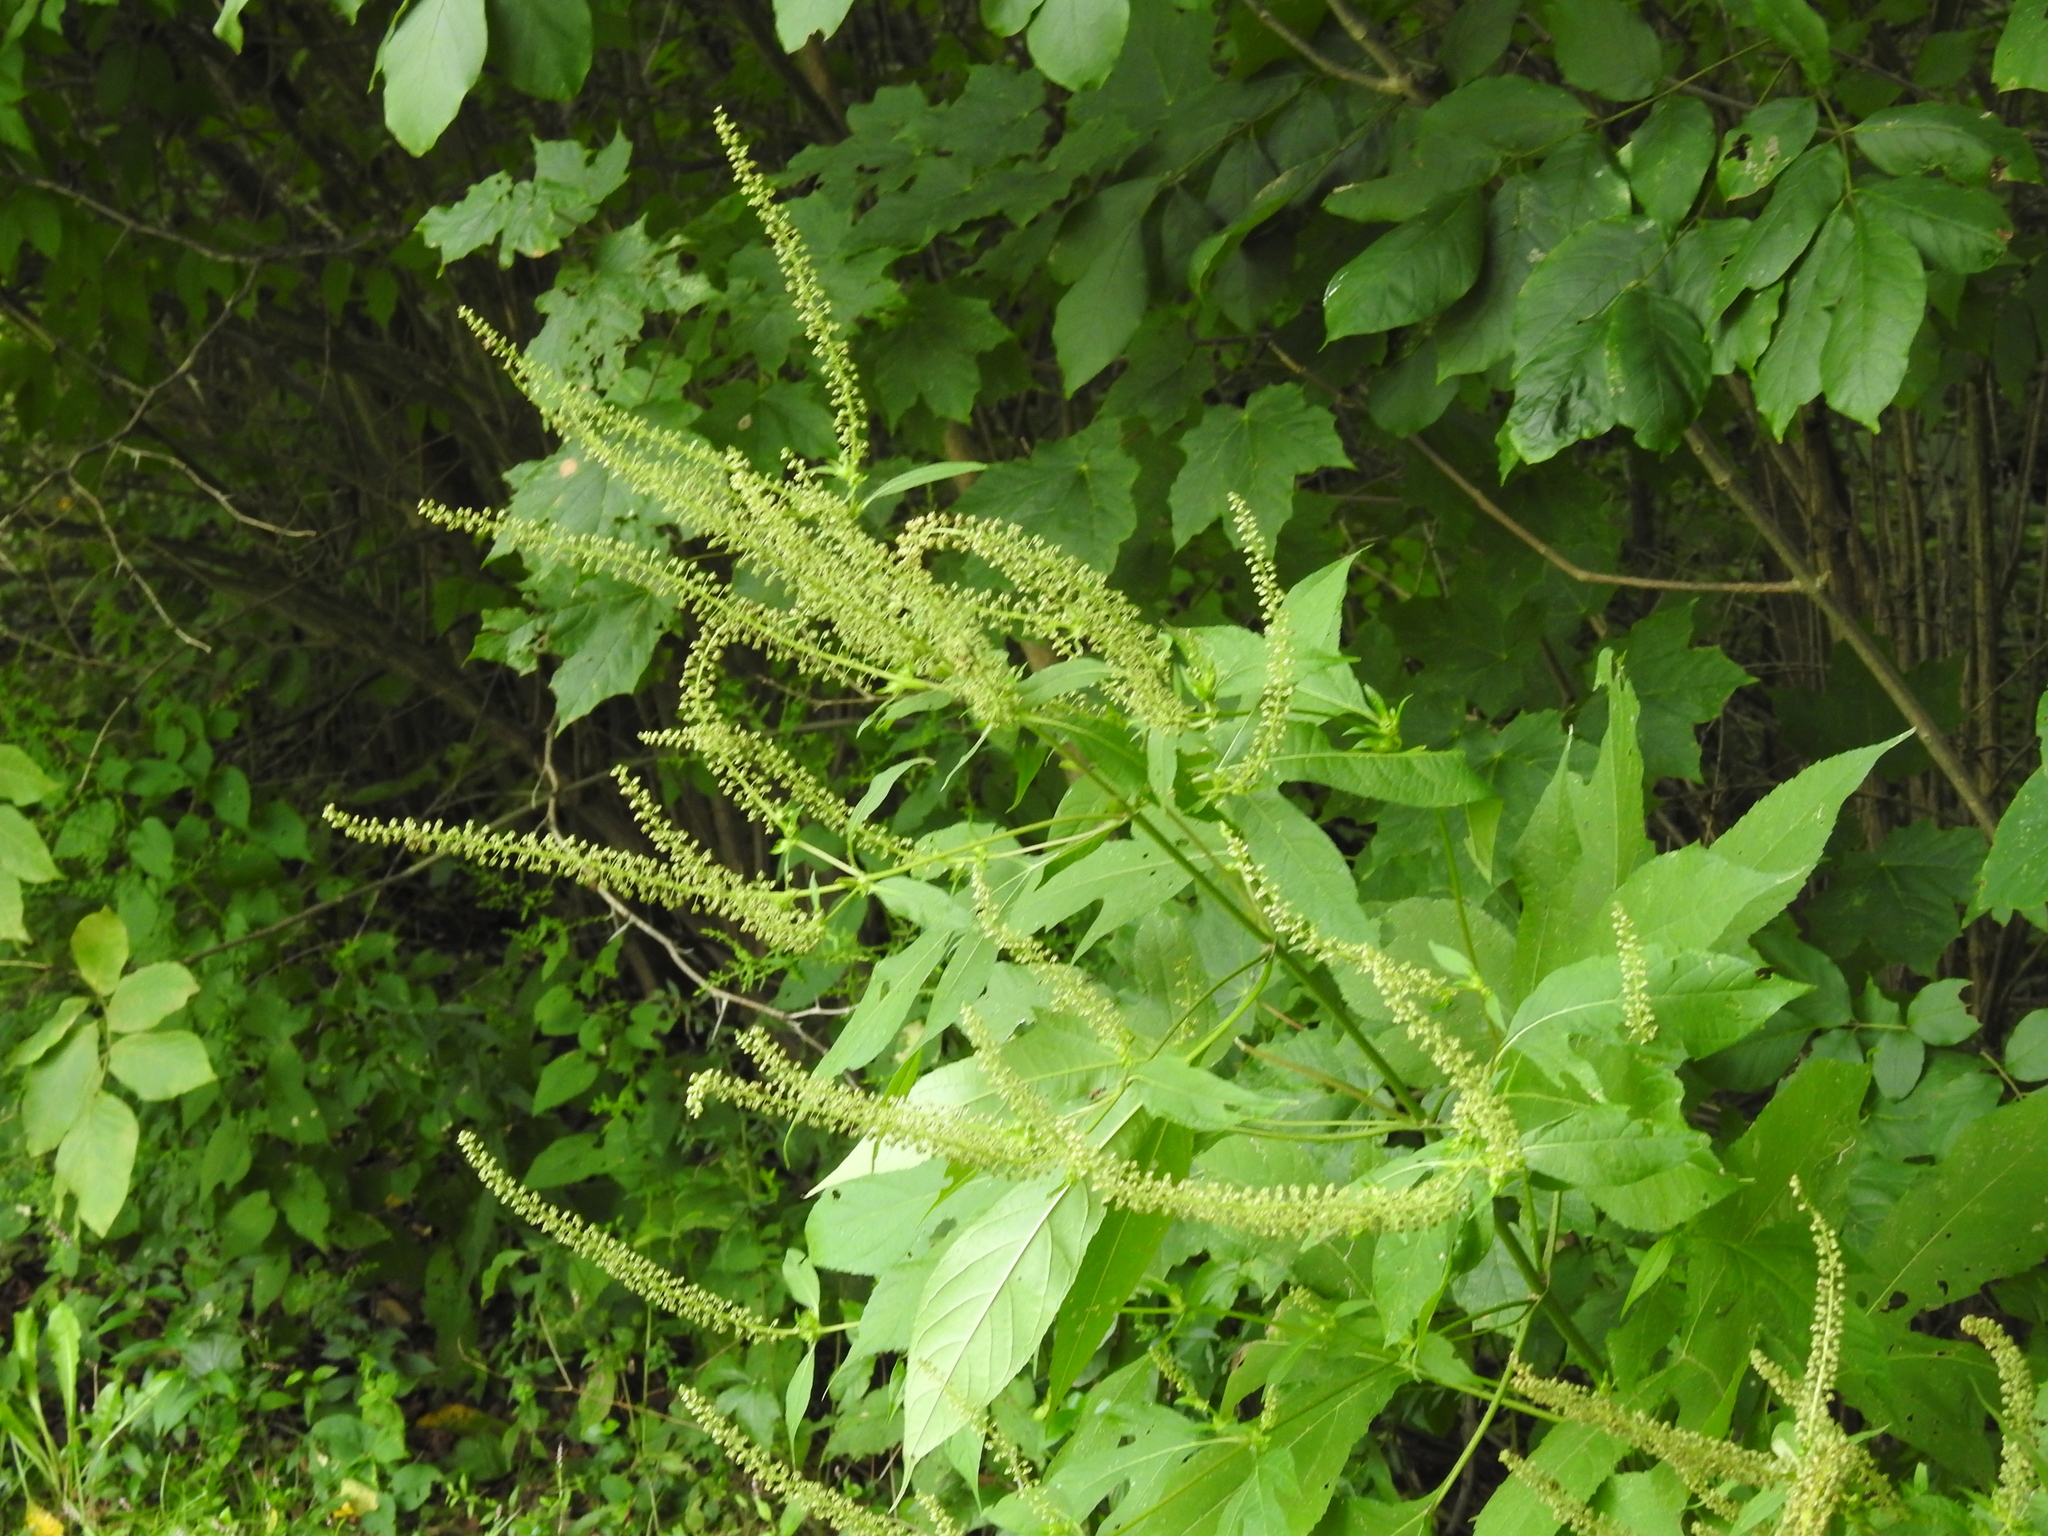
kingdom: Plantae
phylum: Tracheophyta
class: Magnoliopsida
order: Asterales
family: Asteraceae
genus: Ambrosia
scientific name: Ambrosia trifida
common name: Giant ragweed
